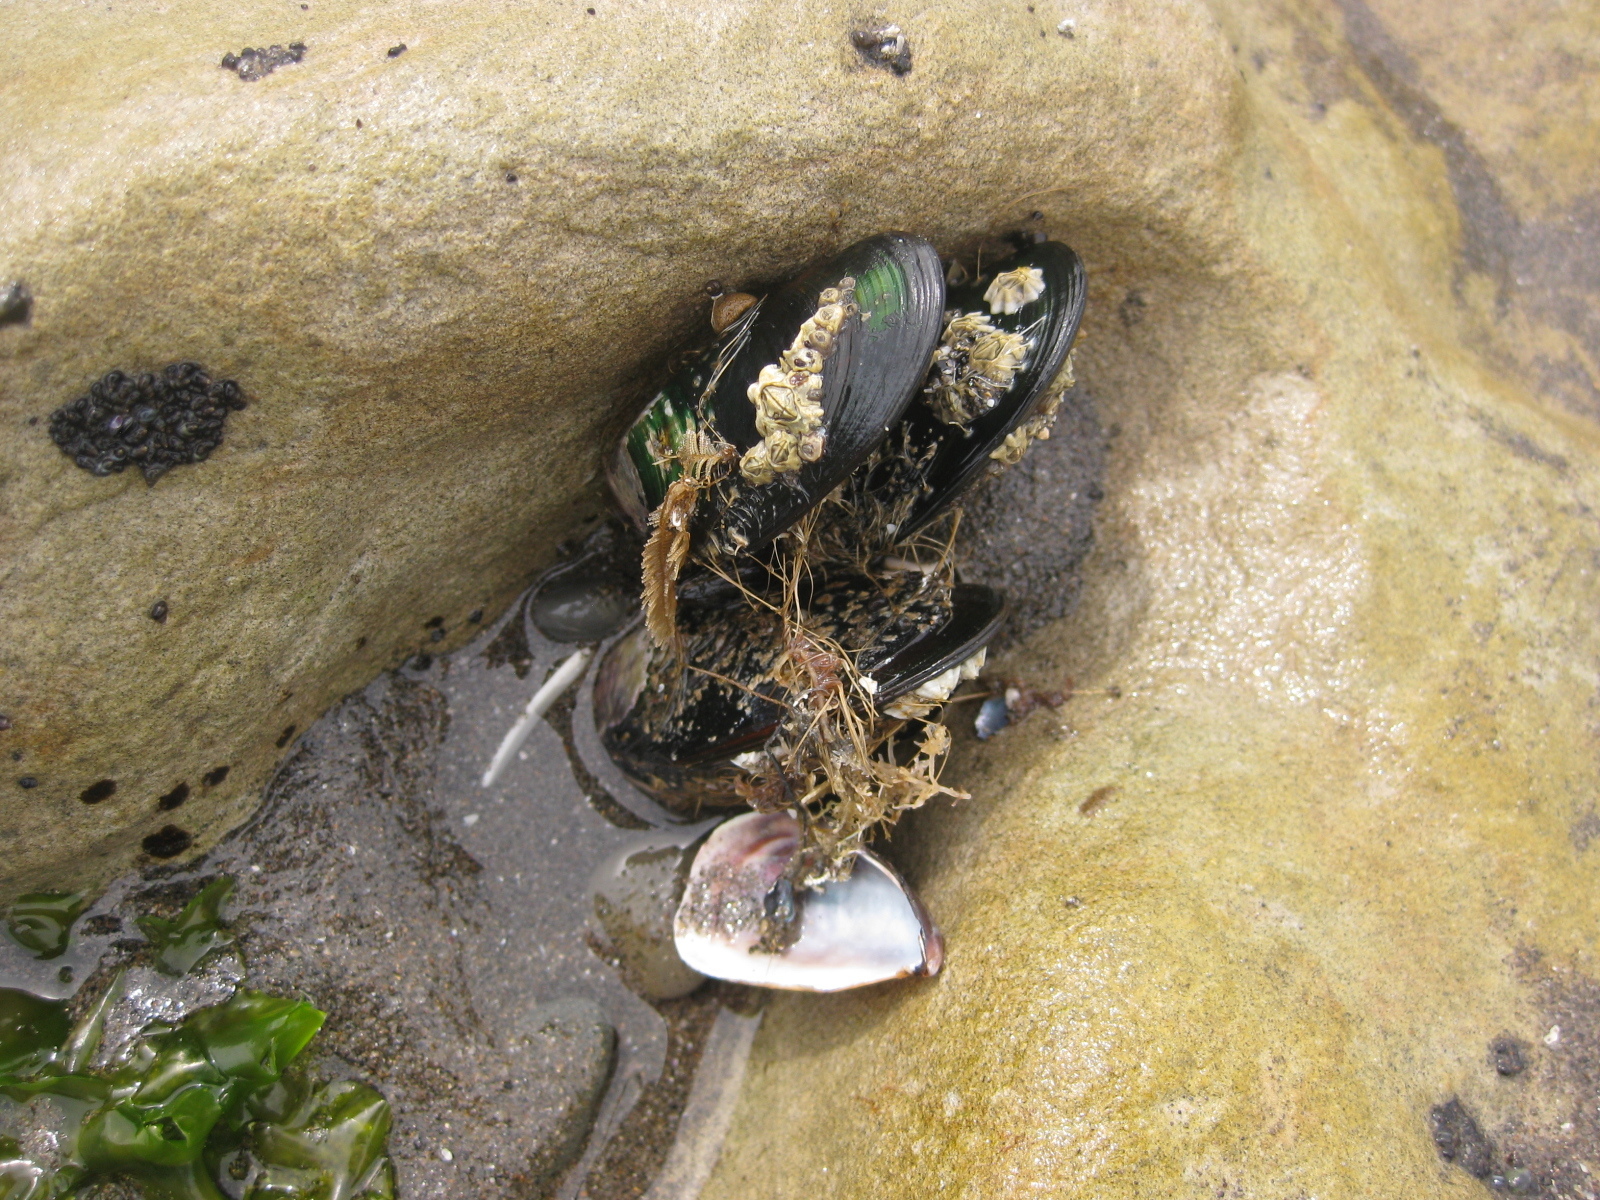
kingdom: Animalia
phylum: Mollusca
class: Bivalvia
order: Mytilida
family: Mytilidae
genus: Perna
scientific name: Perna canaliculus
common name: New zealand greenshelltm
